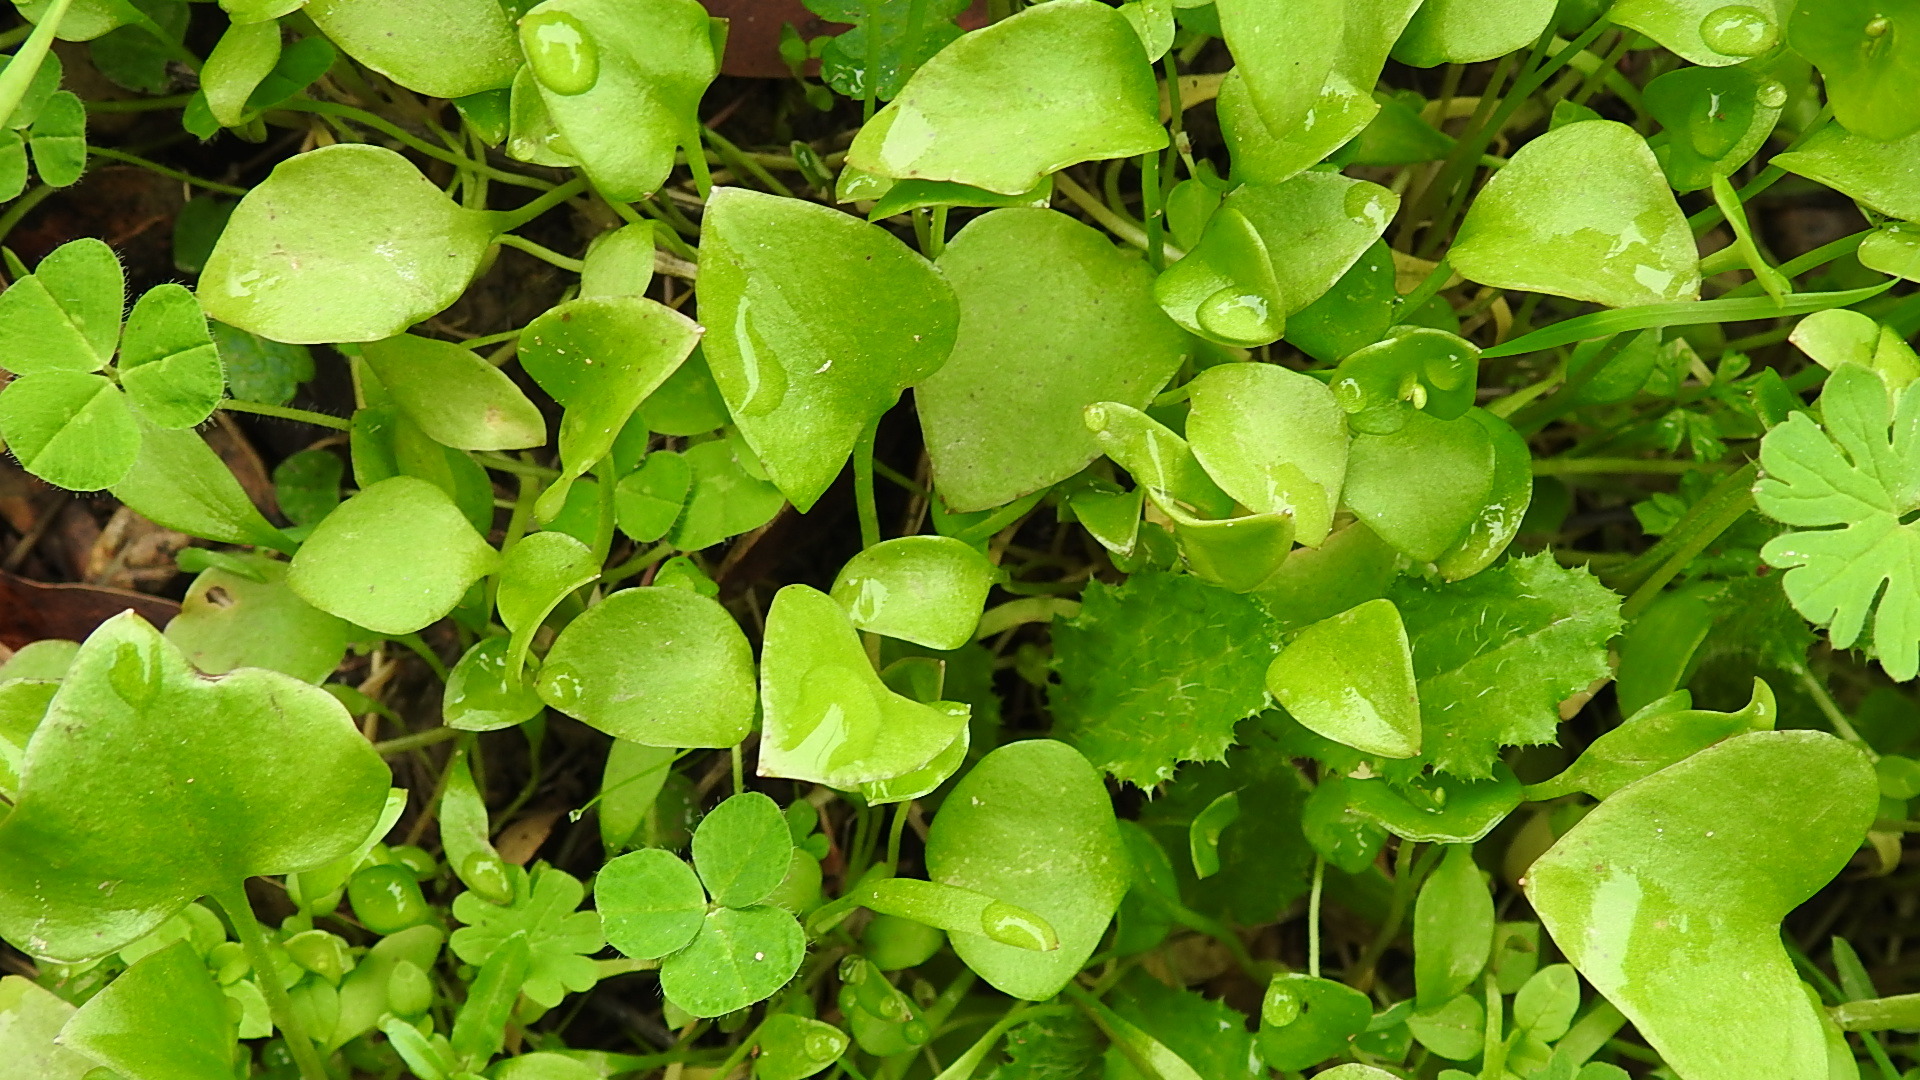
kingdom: Plantae
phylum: Tracheophyta
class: Magnoliopsida
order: Caryophyllales
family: Montiaceae
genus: Claytonia
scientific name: Claytonia perfoliata
